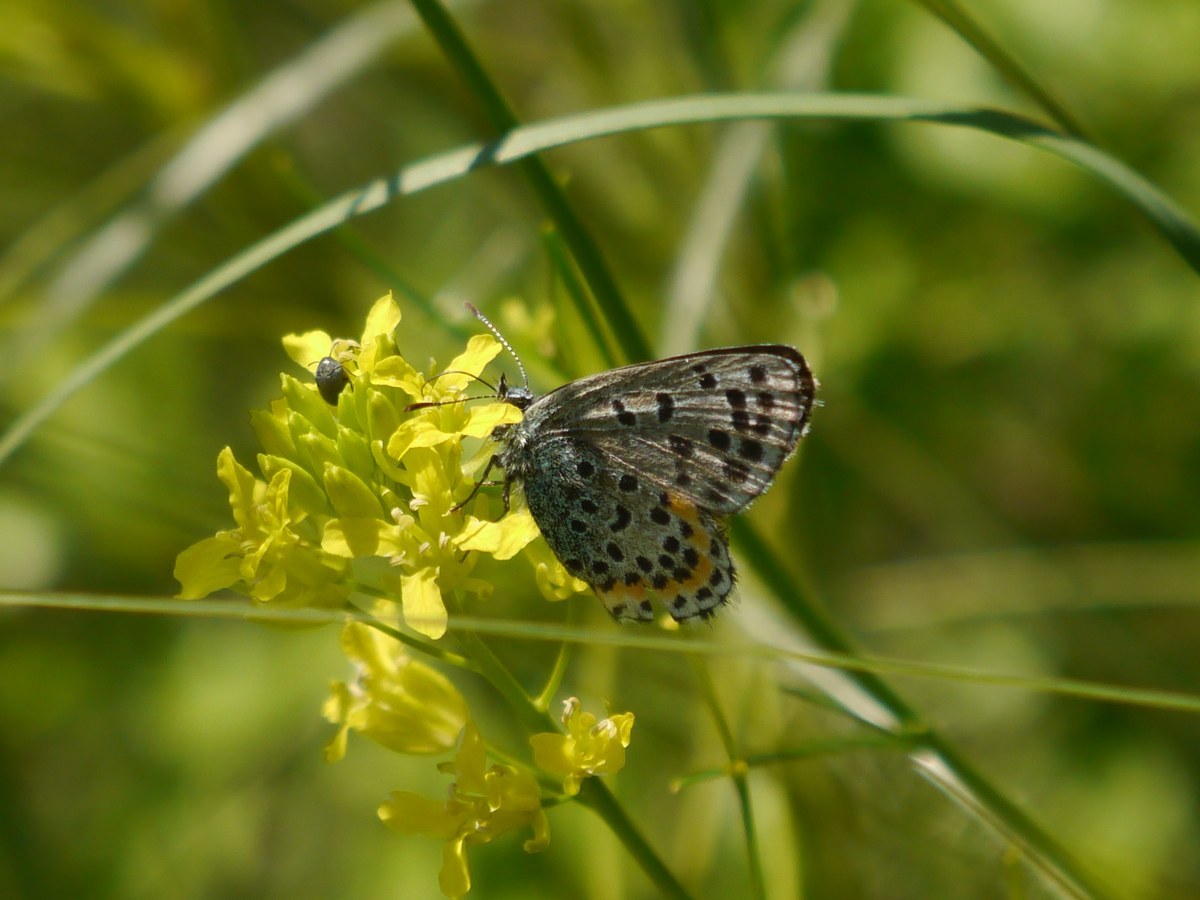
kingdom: Animalia
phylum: Arthropoda
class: Insecta
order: Lepidoptera
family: Lycaenidae
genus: Pseudophilotes
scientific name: Pseudophilotes bavius
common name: Bavius blue
